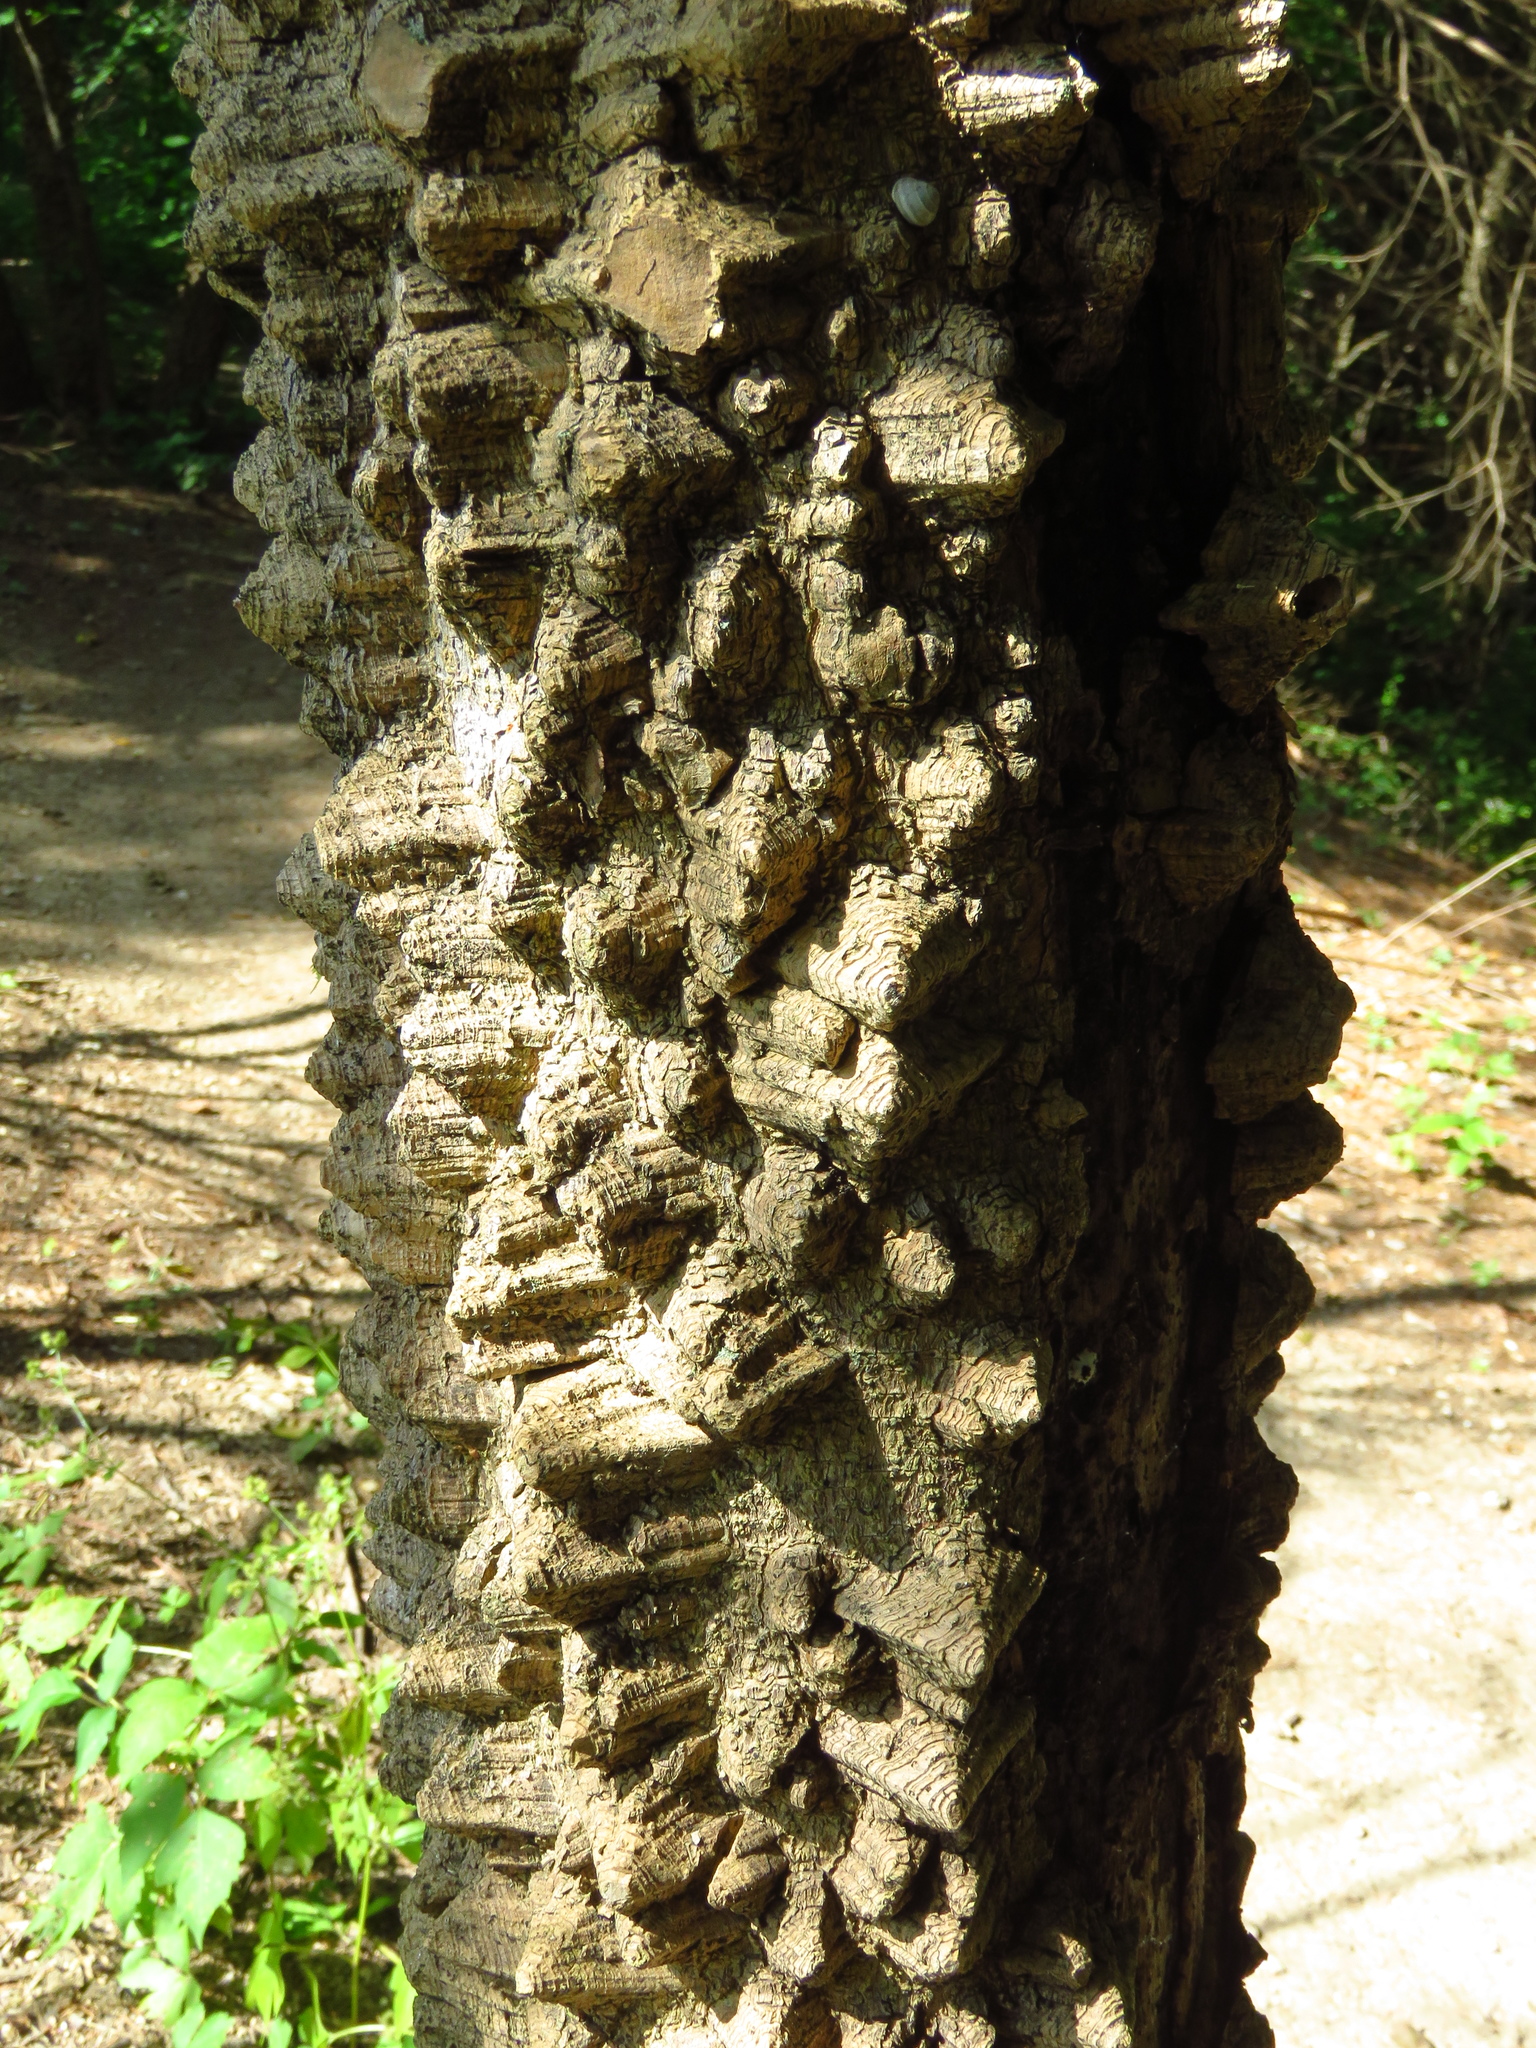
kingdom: Plantae
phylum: Tracheophyta
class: Magnoliopsida
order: Sapindales
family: Rutaceae
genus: Zanthoxylum
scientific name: Zanthoxylum clava-herculis
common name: Hercules'-club
